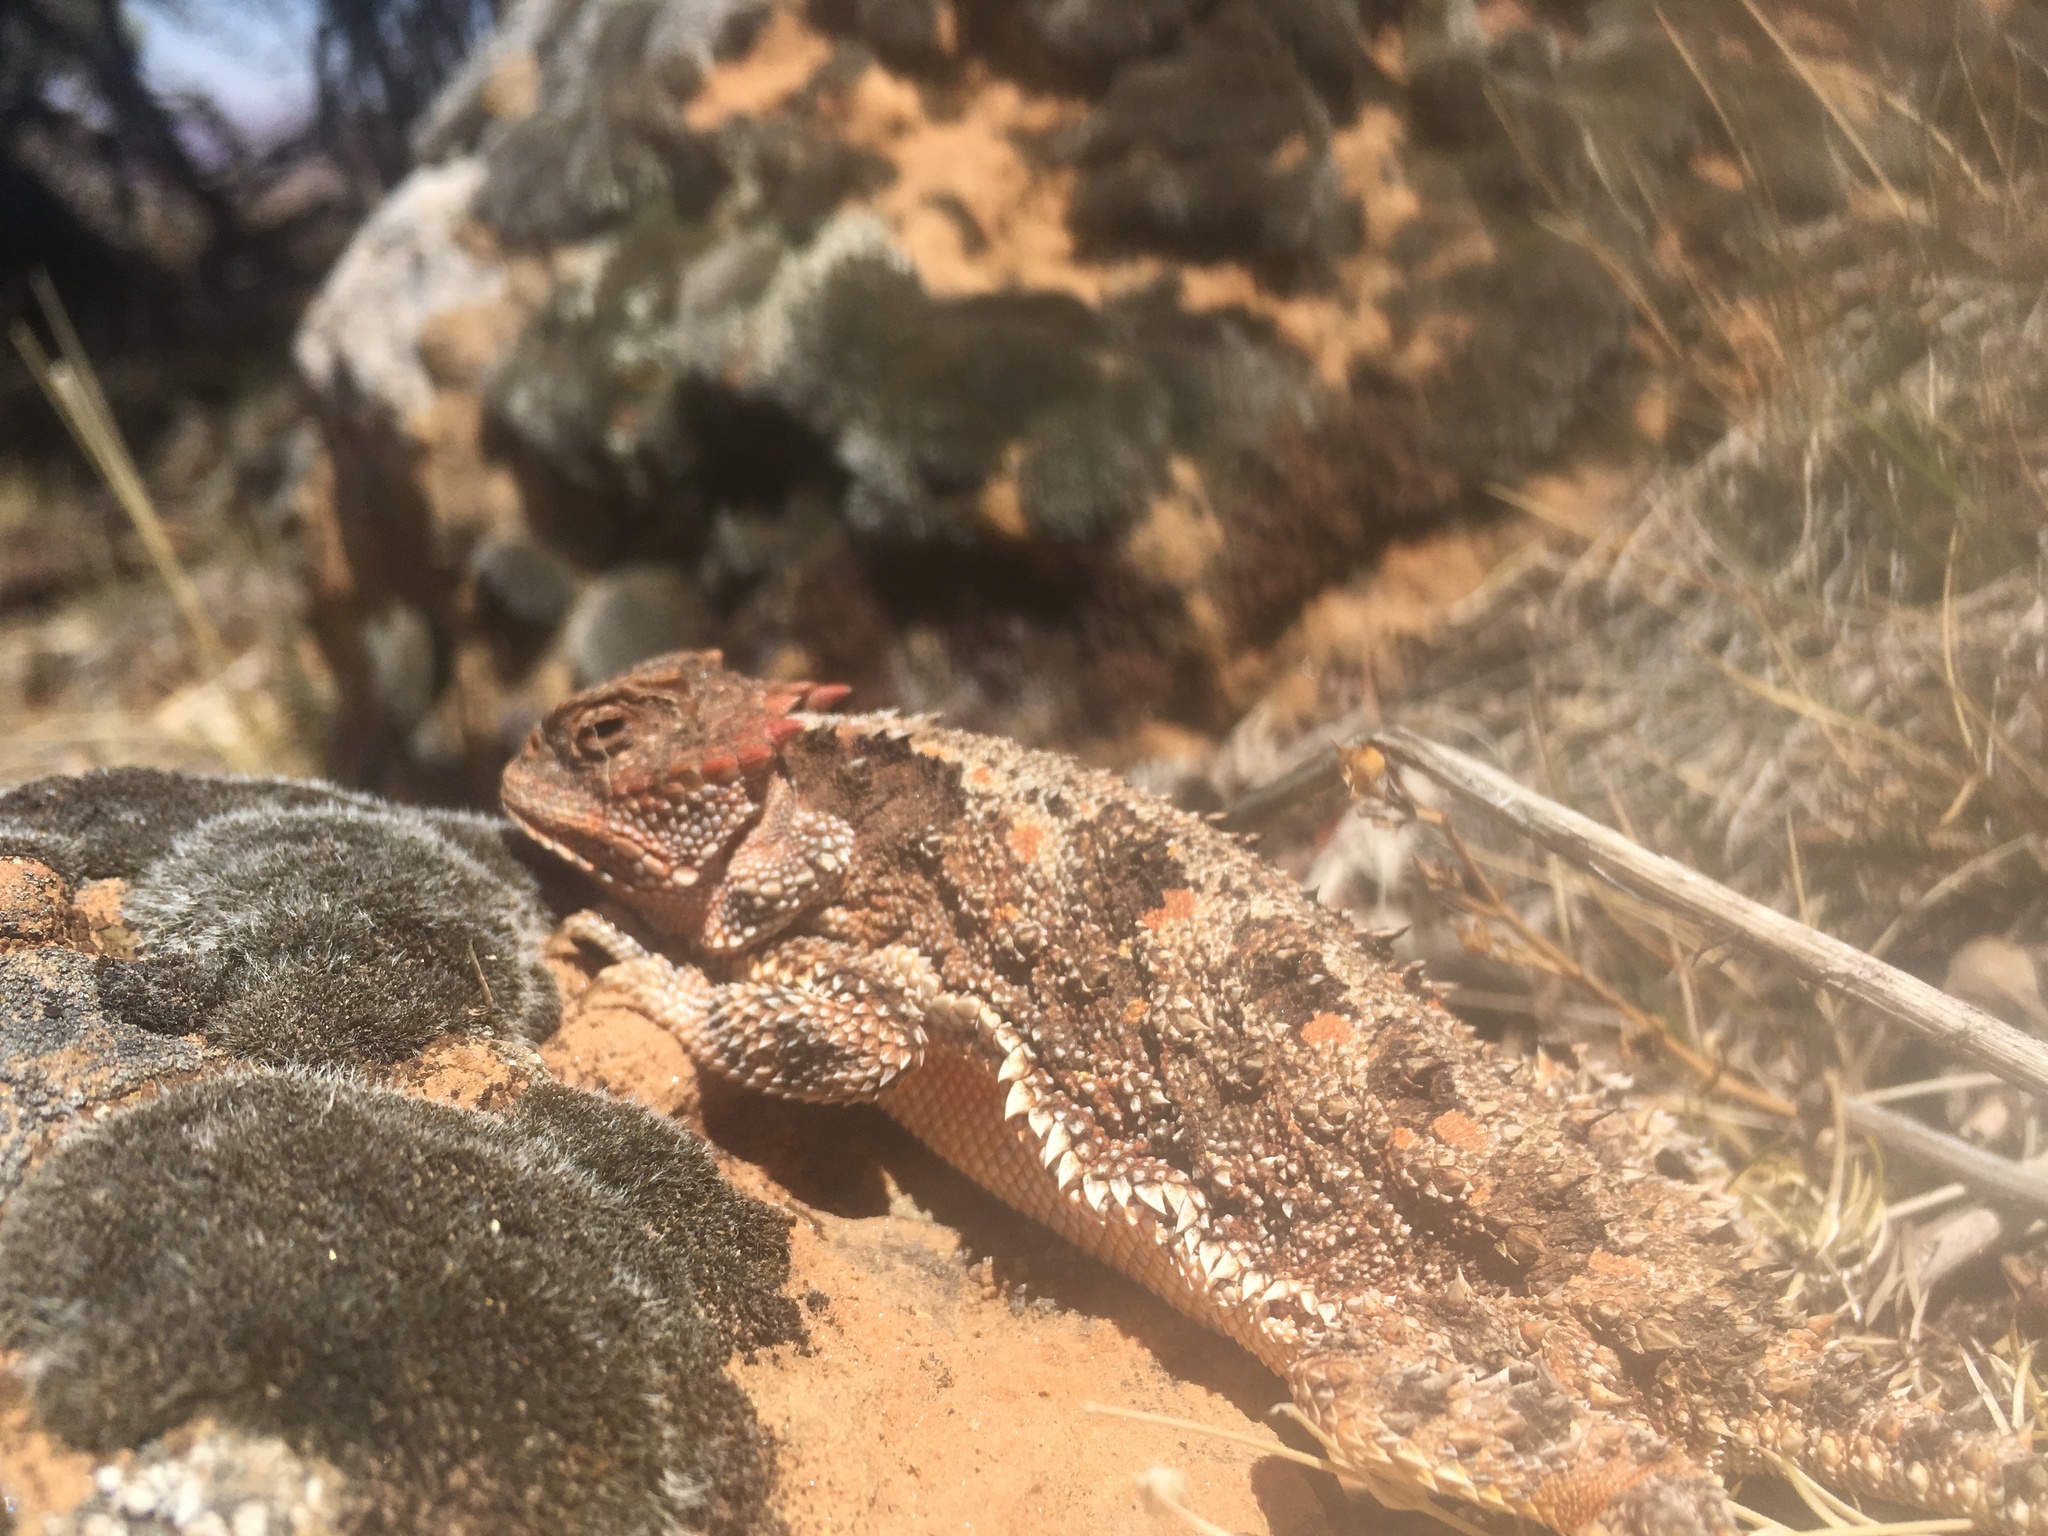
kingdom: Animalia
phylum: Chordata
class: Squamata
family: Phrynosomatidae
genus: Phrynosoma
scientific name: Phrynosoma hernandesi
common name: Greater short-horned lizard
